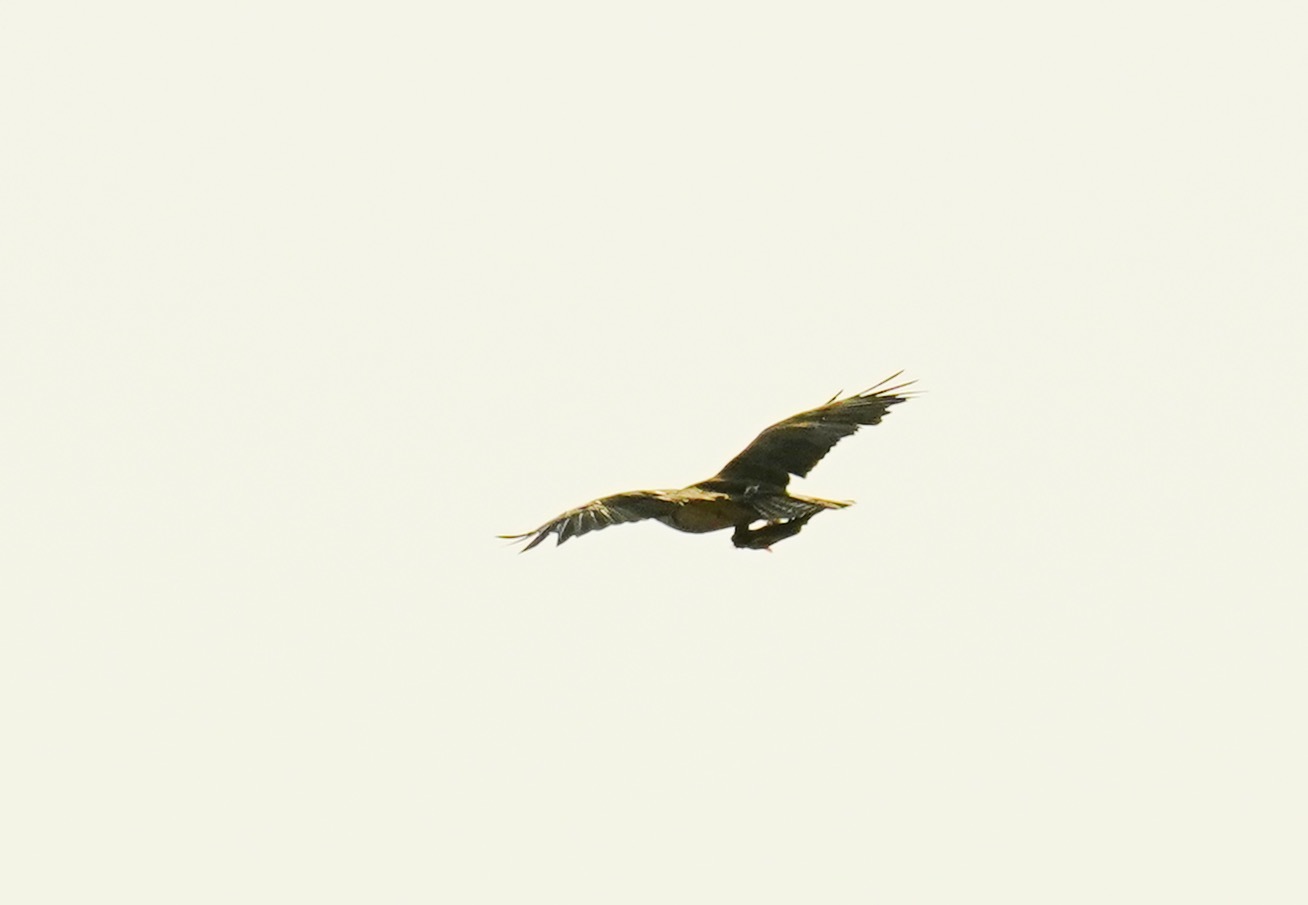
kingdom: Animalia
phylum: Chordata
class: Aves
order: Accipitriformes
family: Pandionidae
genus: Pandion
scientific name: Pandion haliaetus
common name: Osprey
